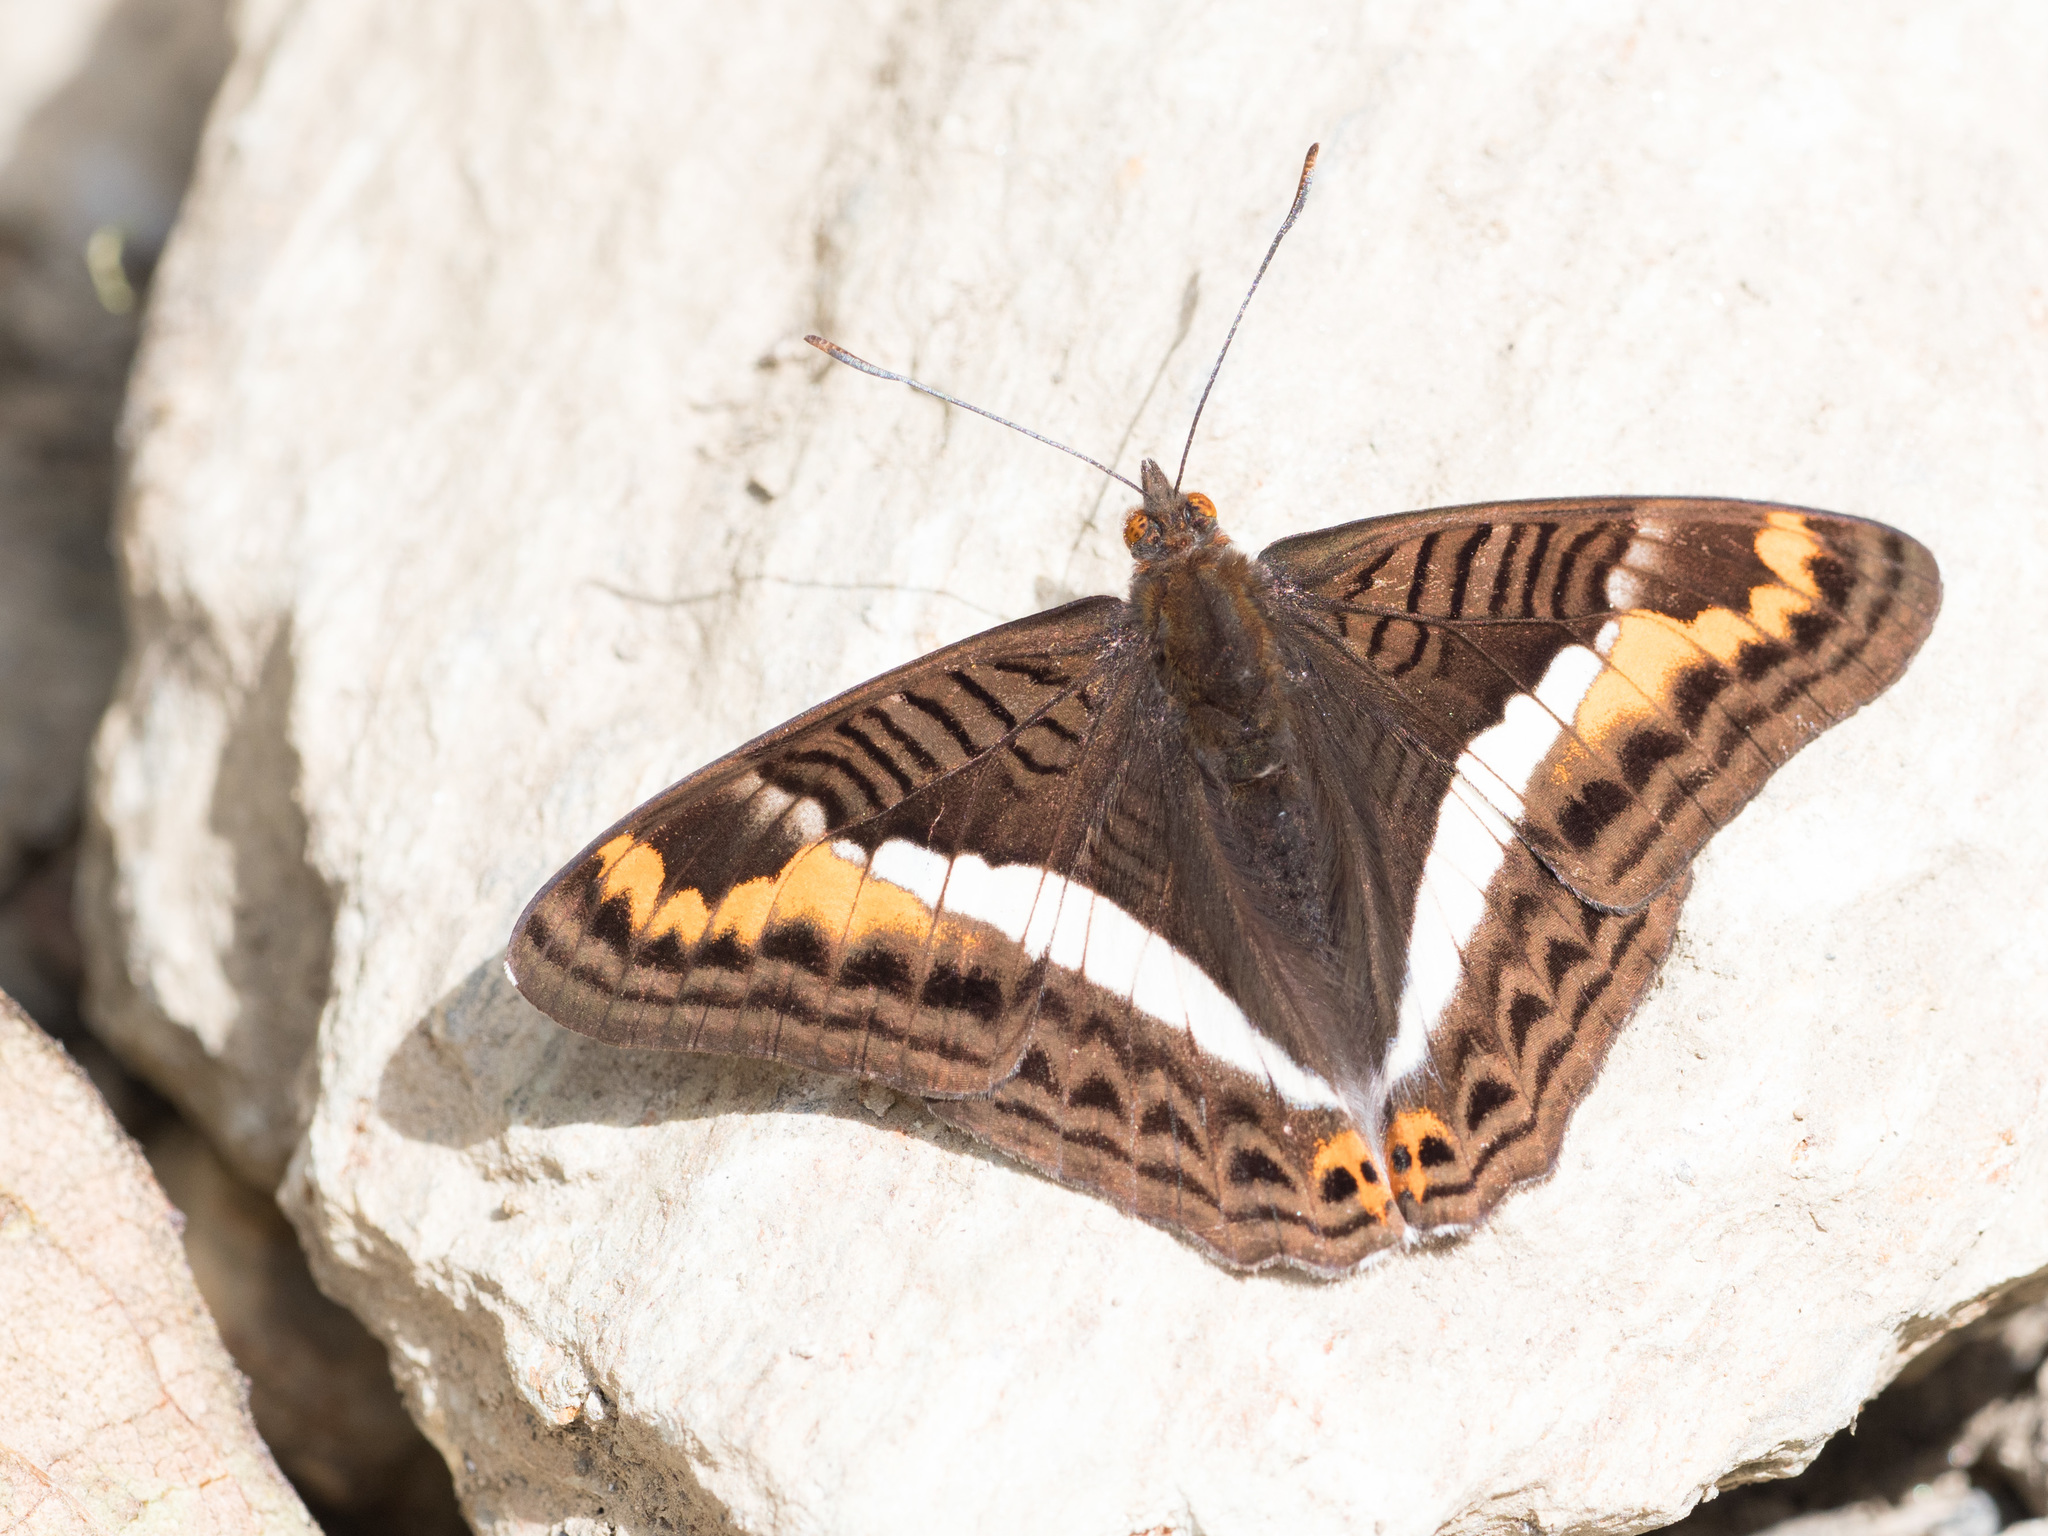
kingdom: Animalia
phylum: Arthropoda
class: Insecta
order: Lepidoptera
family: Nymphalidae
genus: Limenitis
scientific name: Limenitis corcyra
